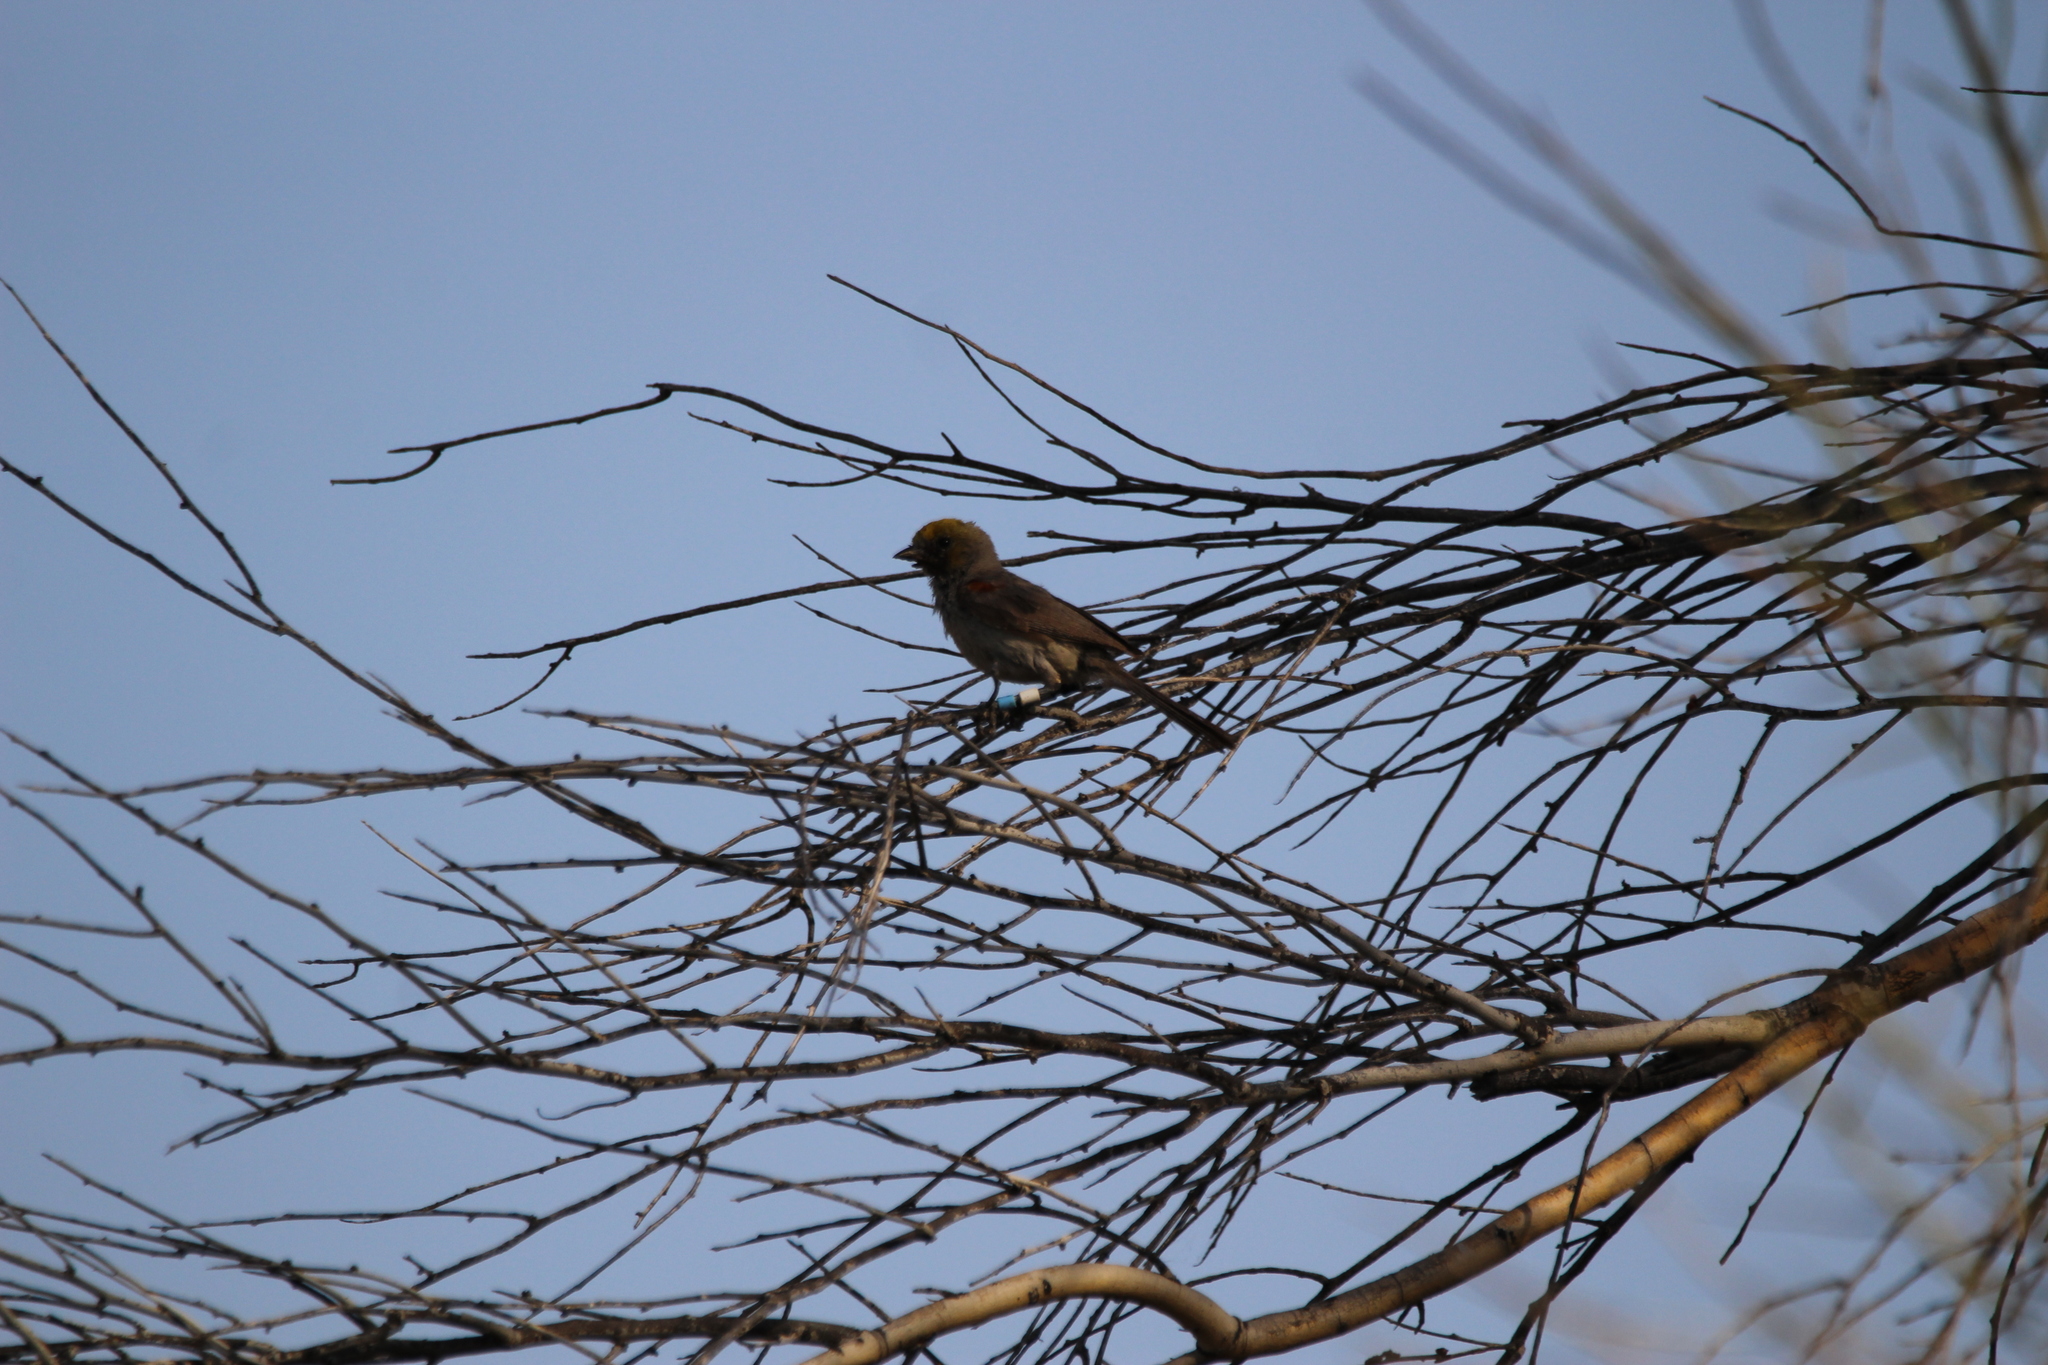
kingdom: Animalia
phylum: Chordata
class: Aves
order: Passeriformes
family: Remizidae
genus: Auriparus
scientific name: Auriparus flaviceps
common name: Verdin
